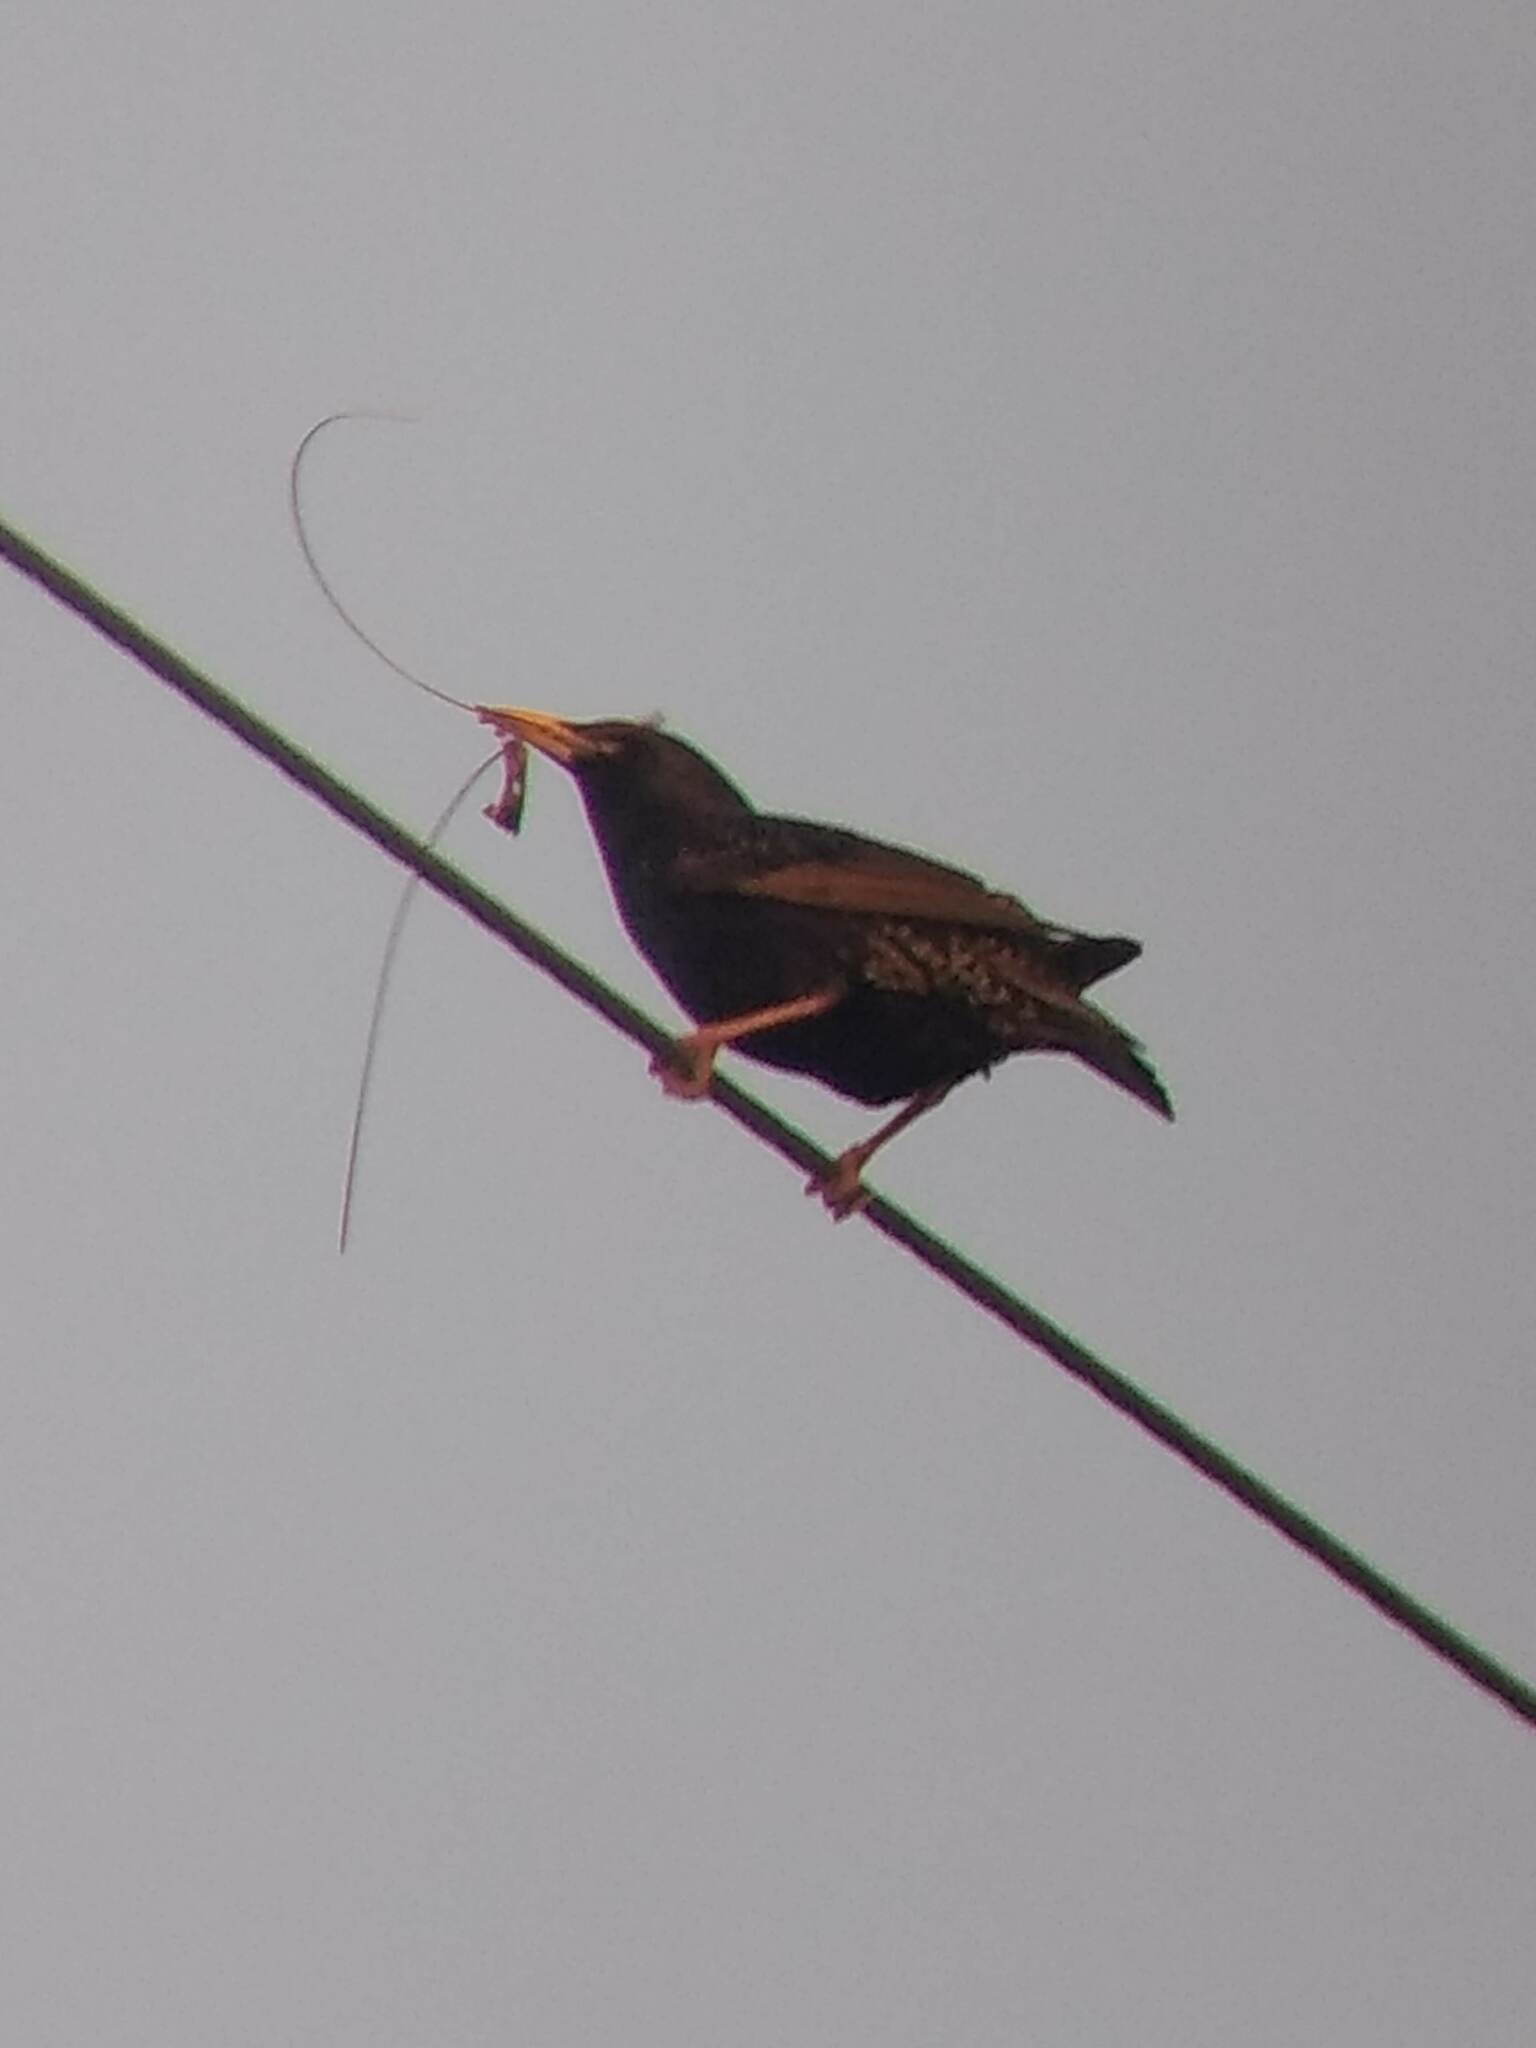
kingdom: Animalia
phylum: Chordata
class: Aves
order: Passeriformes
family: Sturnidae
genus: Sturnus
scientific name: Sturnus vulgaris
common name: Common starling
